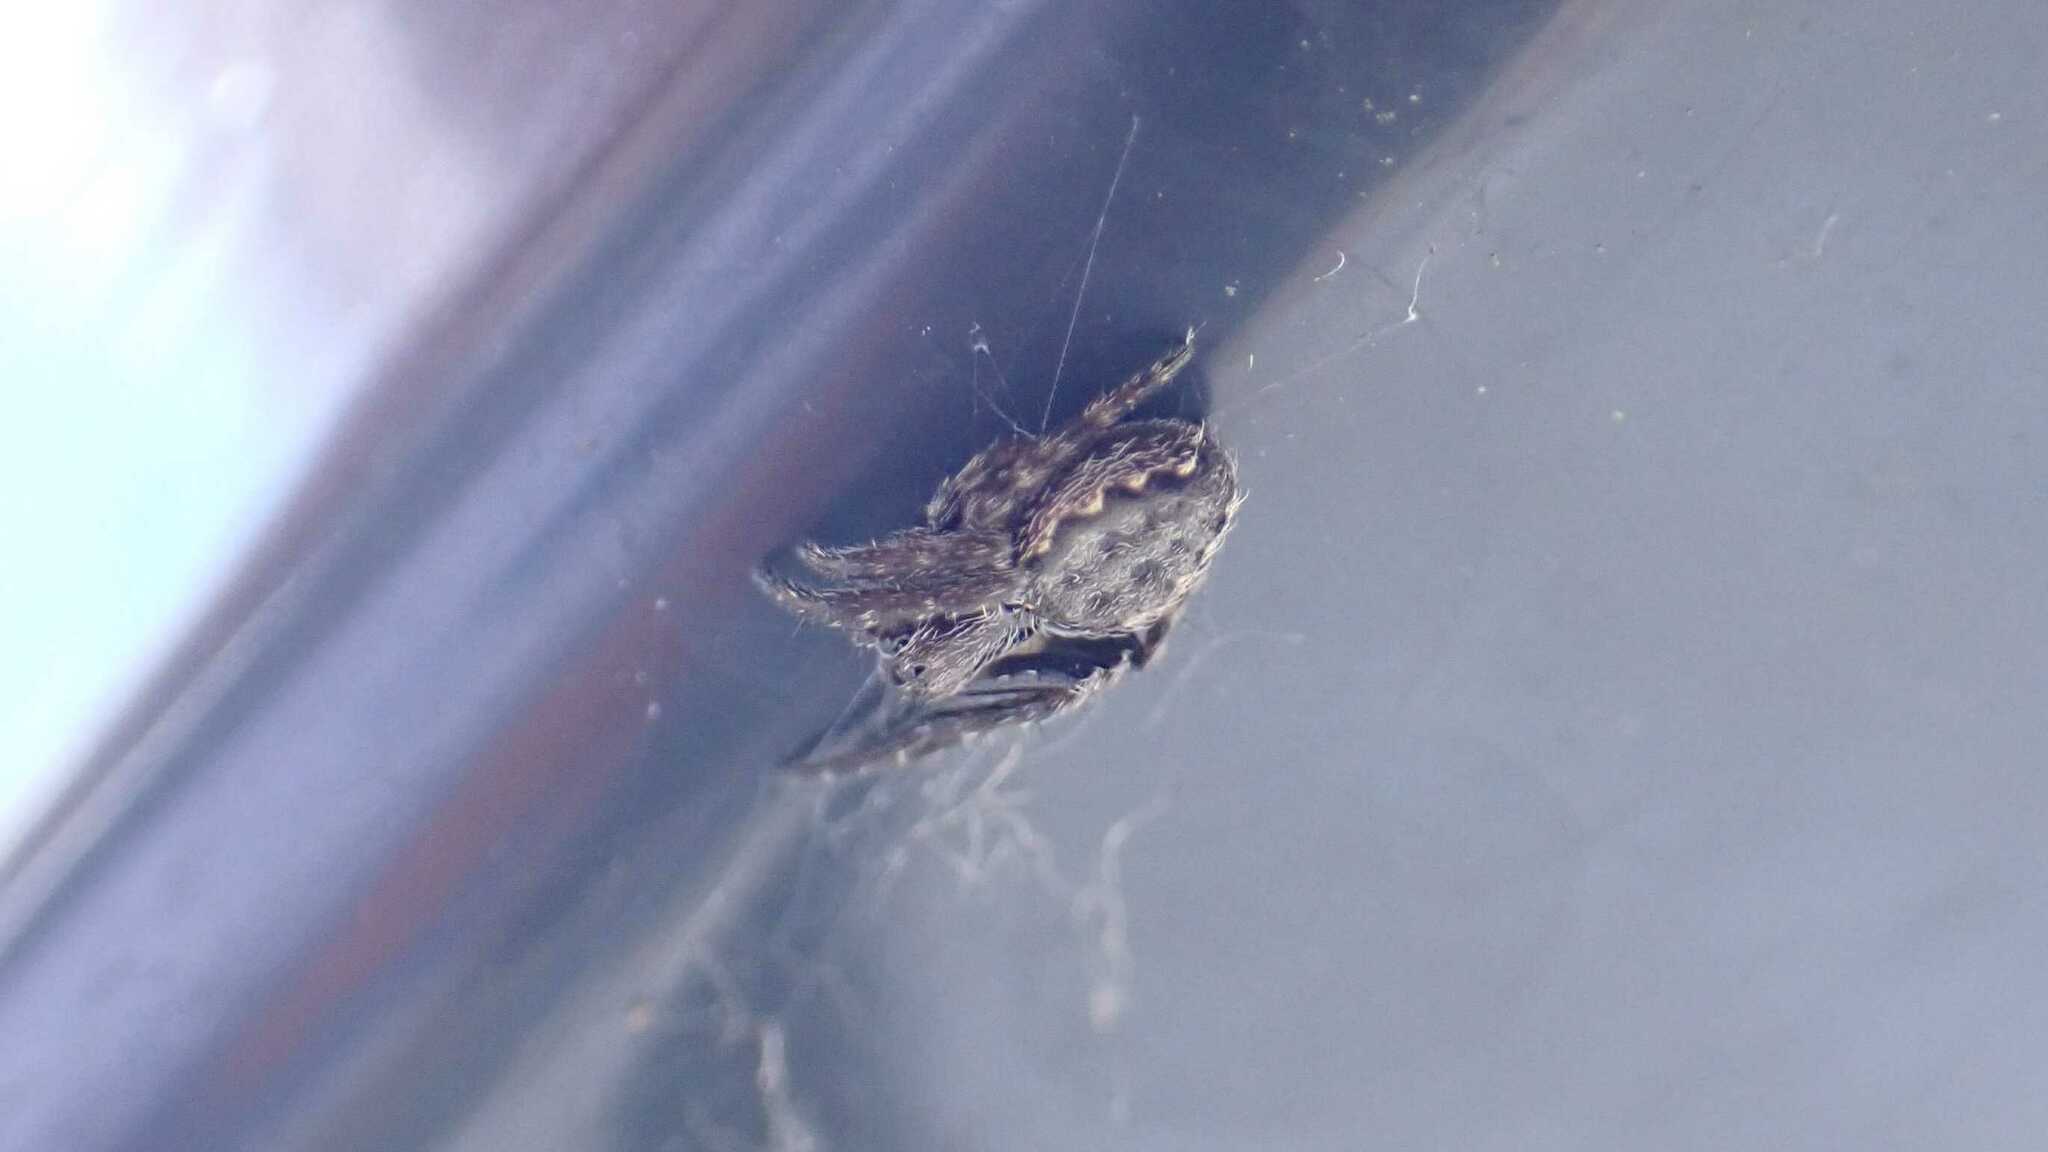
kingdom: Animalia
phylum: Arthropoda
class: Arachnida
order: Araneae
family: Araneidae
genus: Nuctenea
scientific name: Nuctenea umbratica
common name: Toad spider
